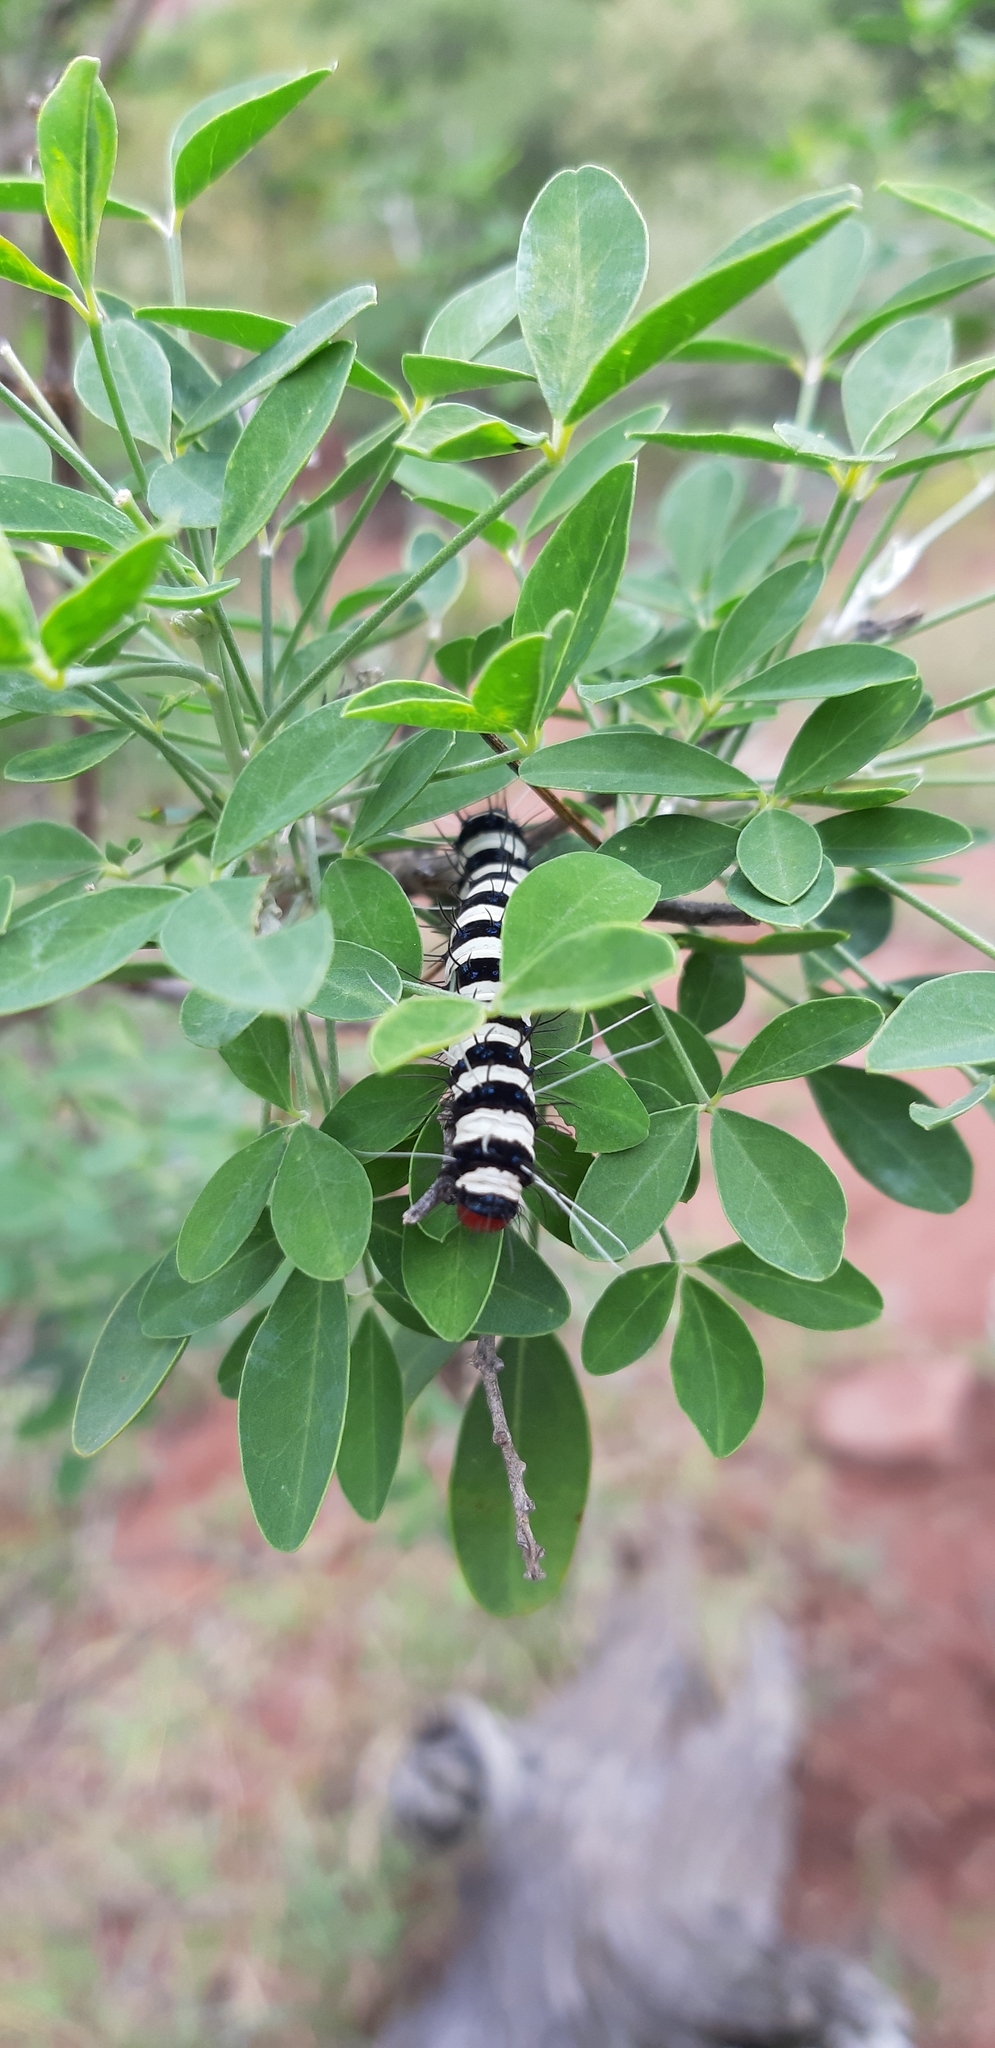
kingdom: Animalia
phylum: Arthropoda
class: Insecta
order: Lepidoptera
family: Erebidae
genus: Amphicallia
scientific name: Amphicallia bellatrix
